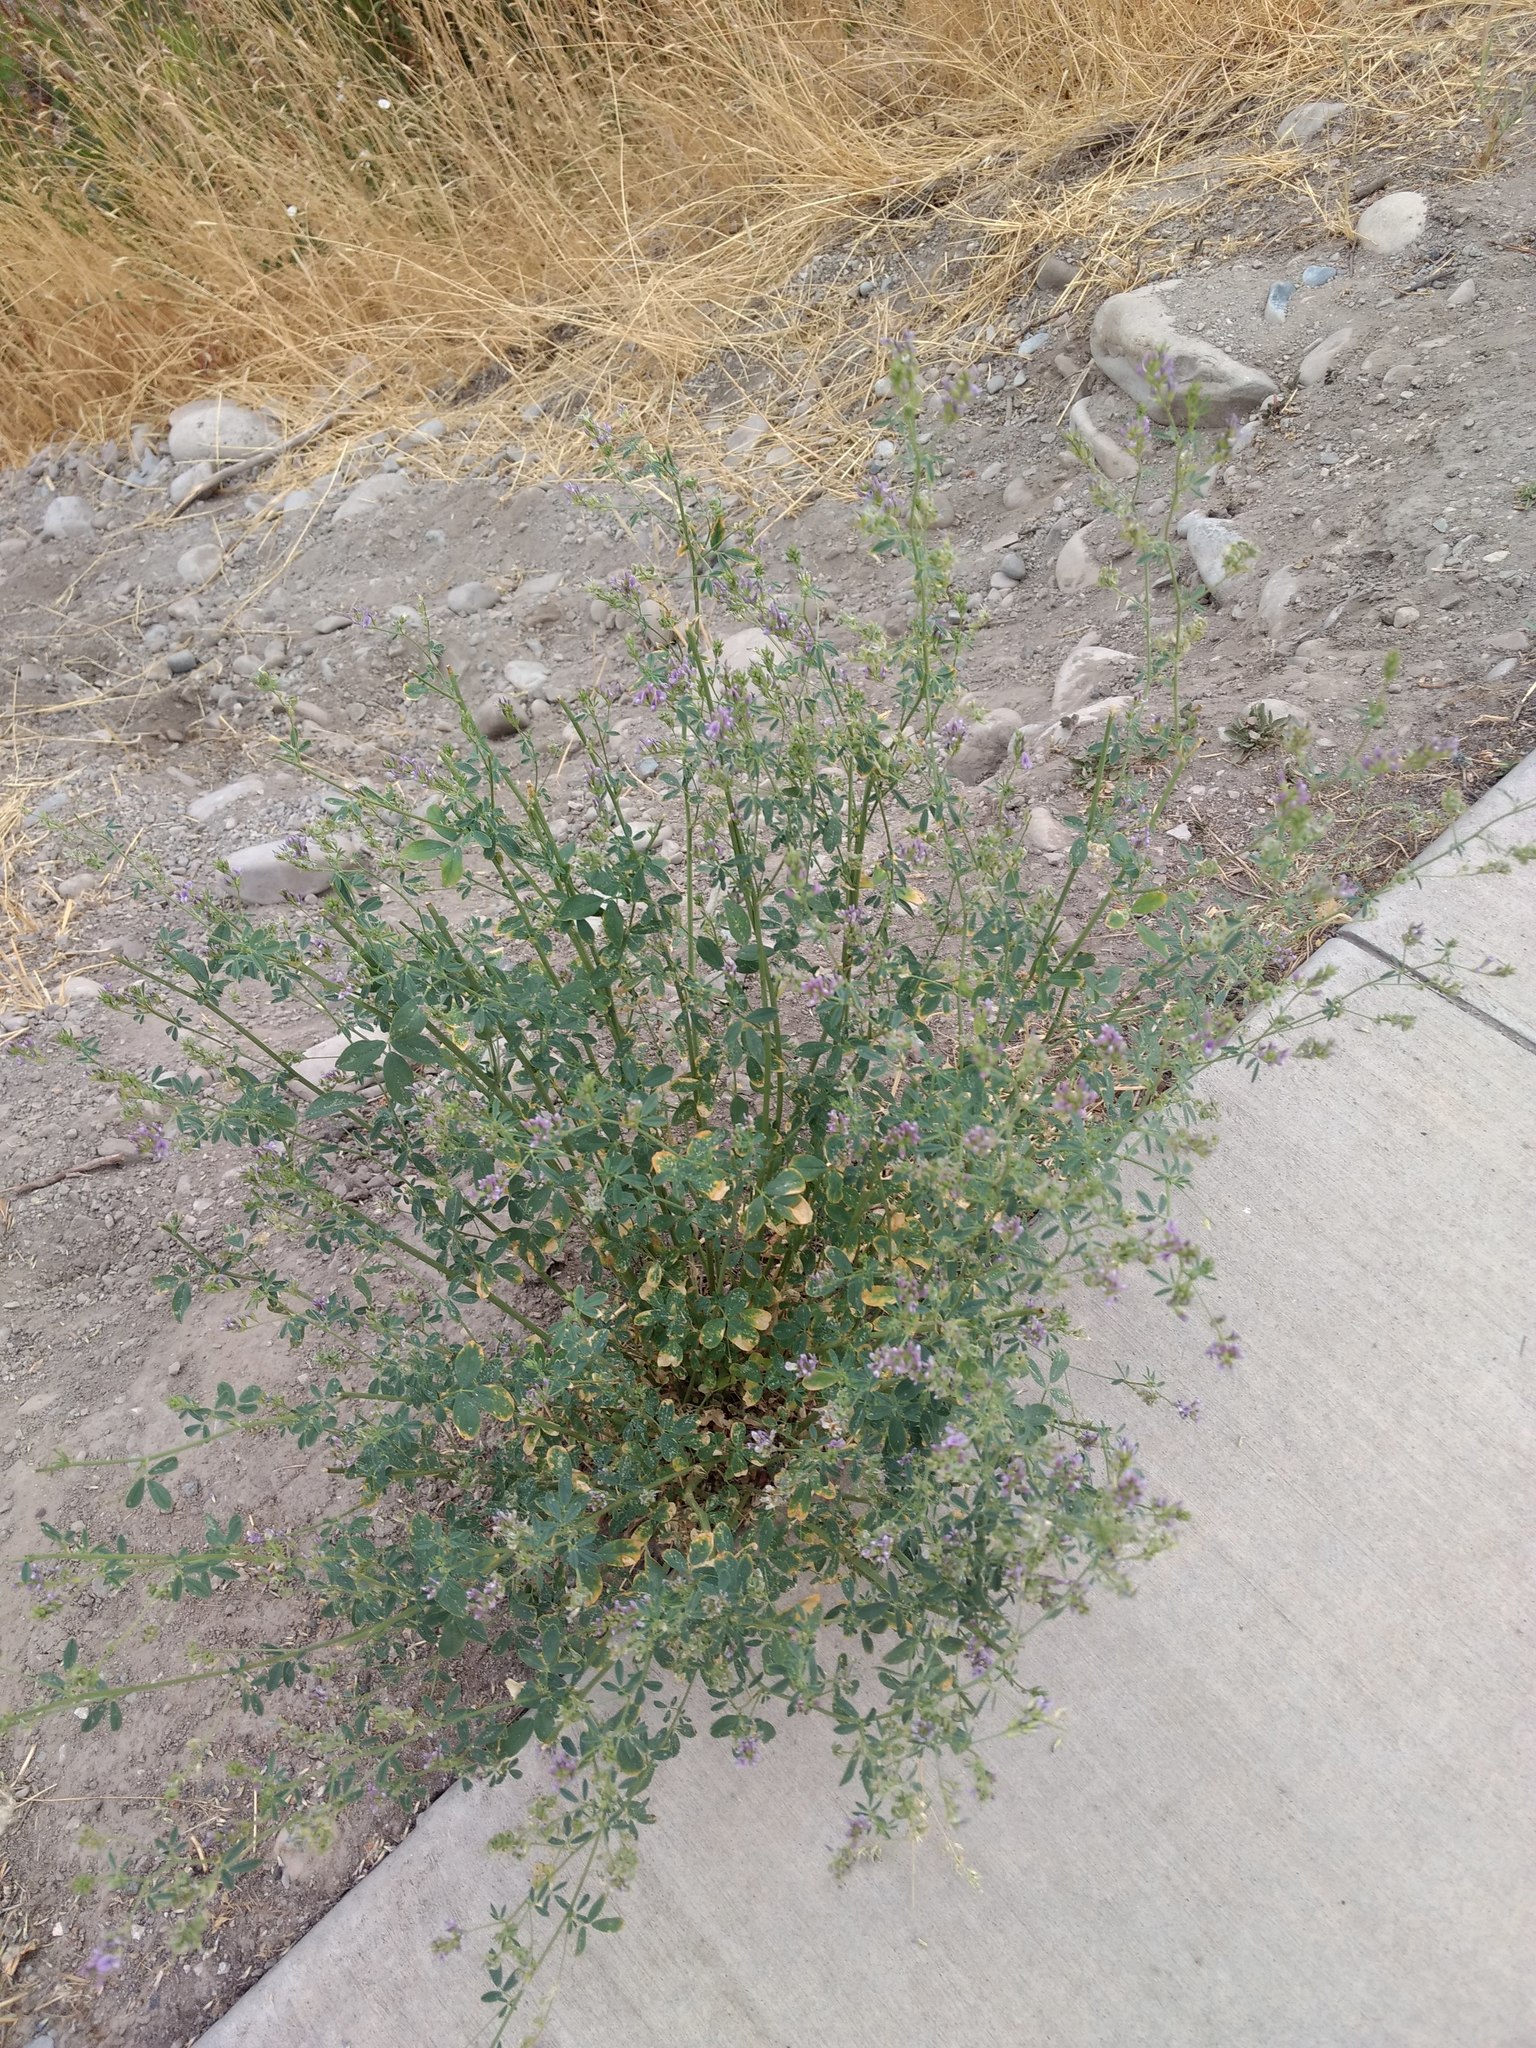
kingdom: Plantae
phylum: Tracheophyta
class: Magnoliopsida
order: Fabales
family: Fabaceae
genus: Medicago
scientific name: Medicago sativa
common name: Alfalfa
